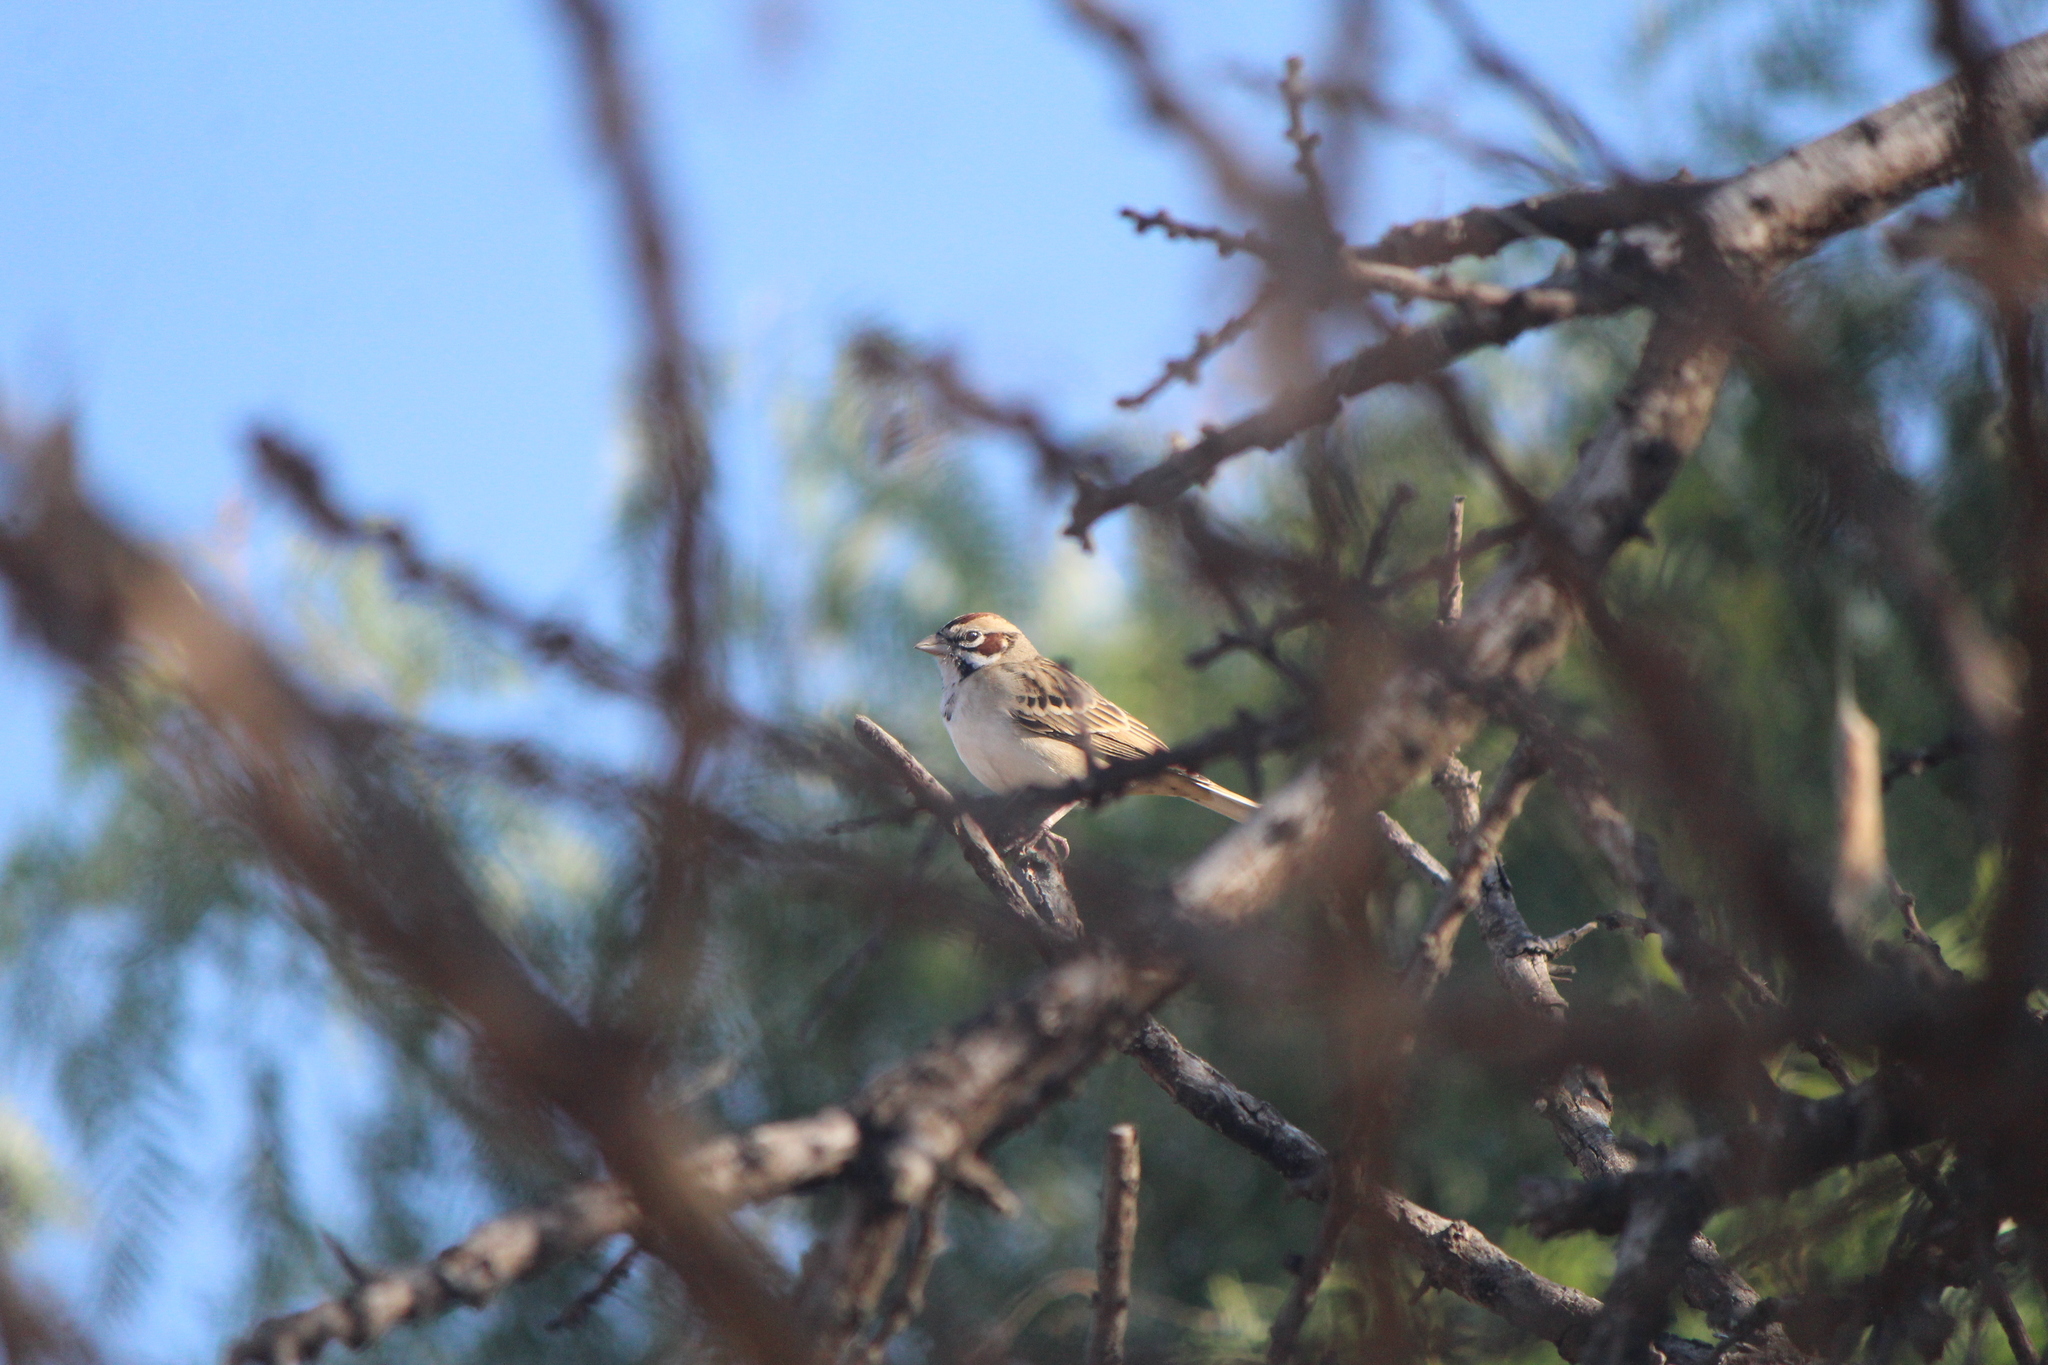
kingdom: Animalia
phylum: Chordata
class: Aves
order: Passeriformes
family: Passerellidae
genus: Chondestes
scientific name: Chondestes grammacus
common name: Lark sparrow
